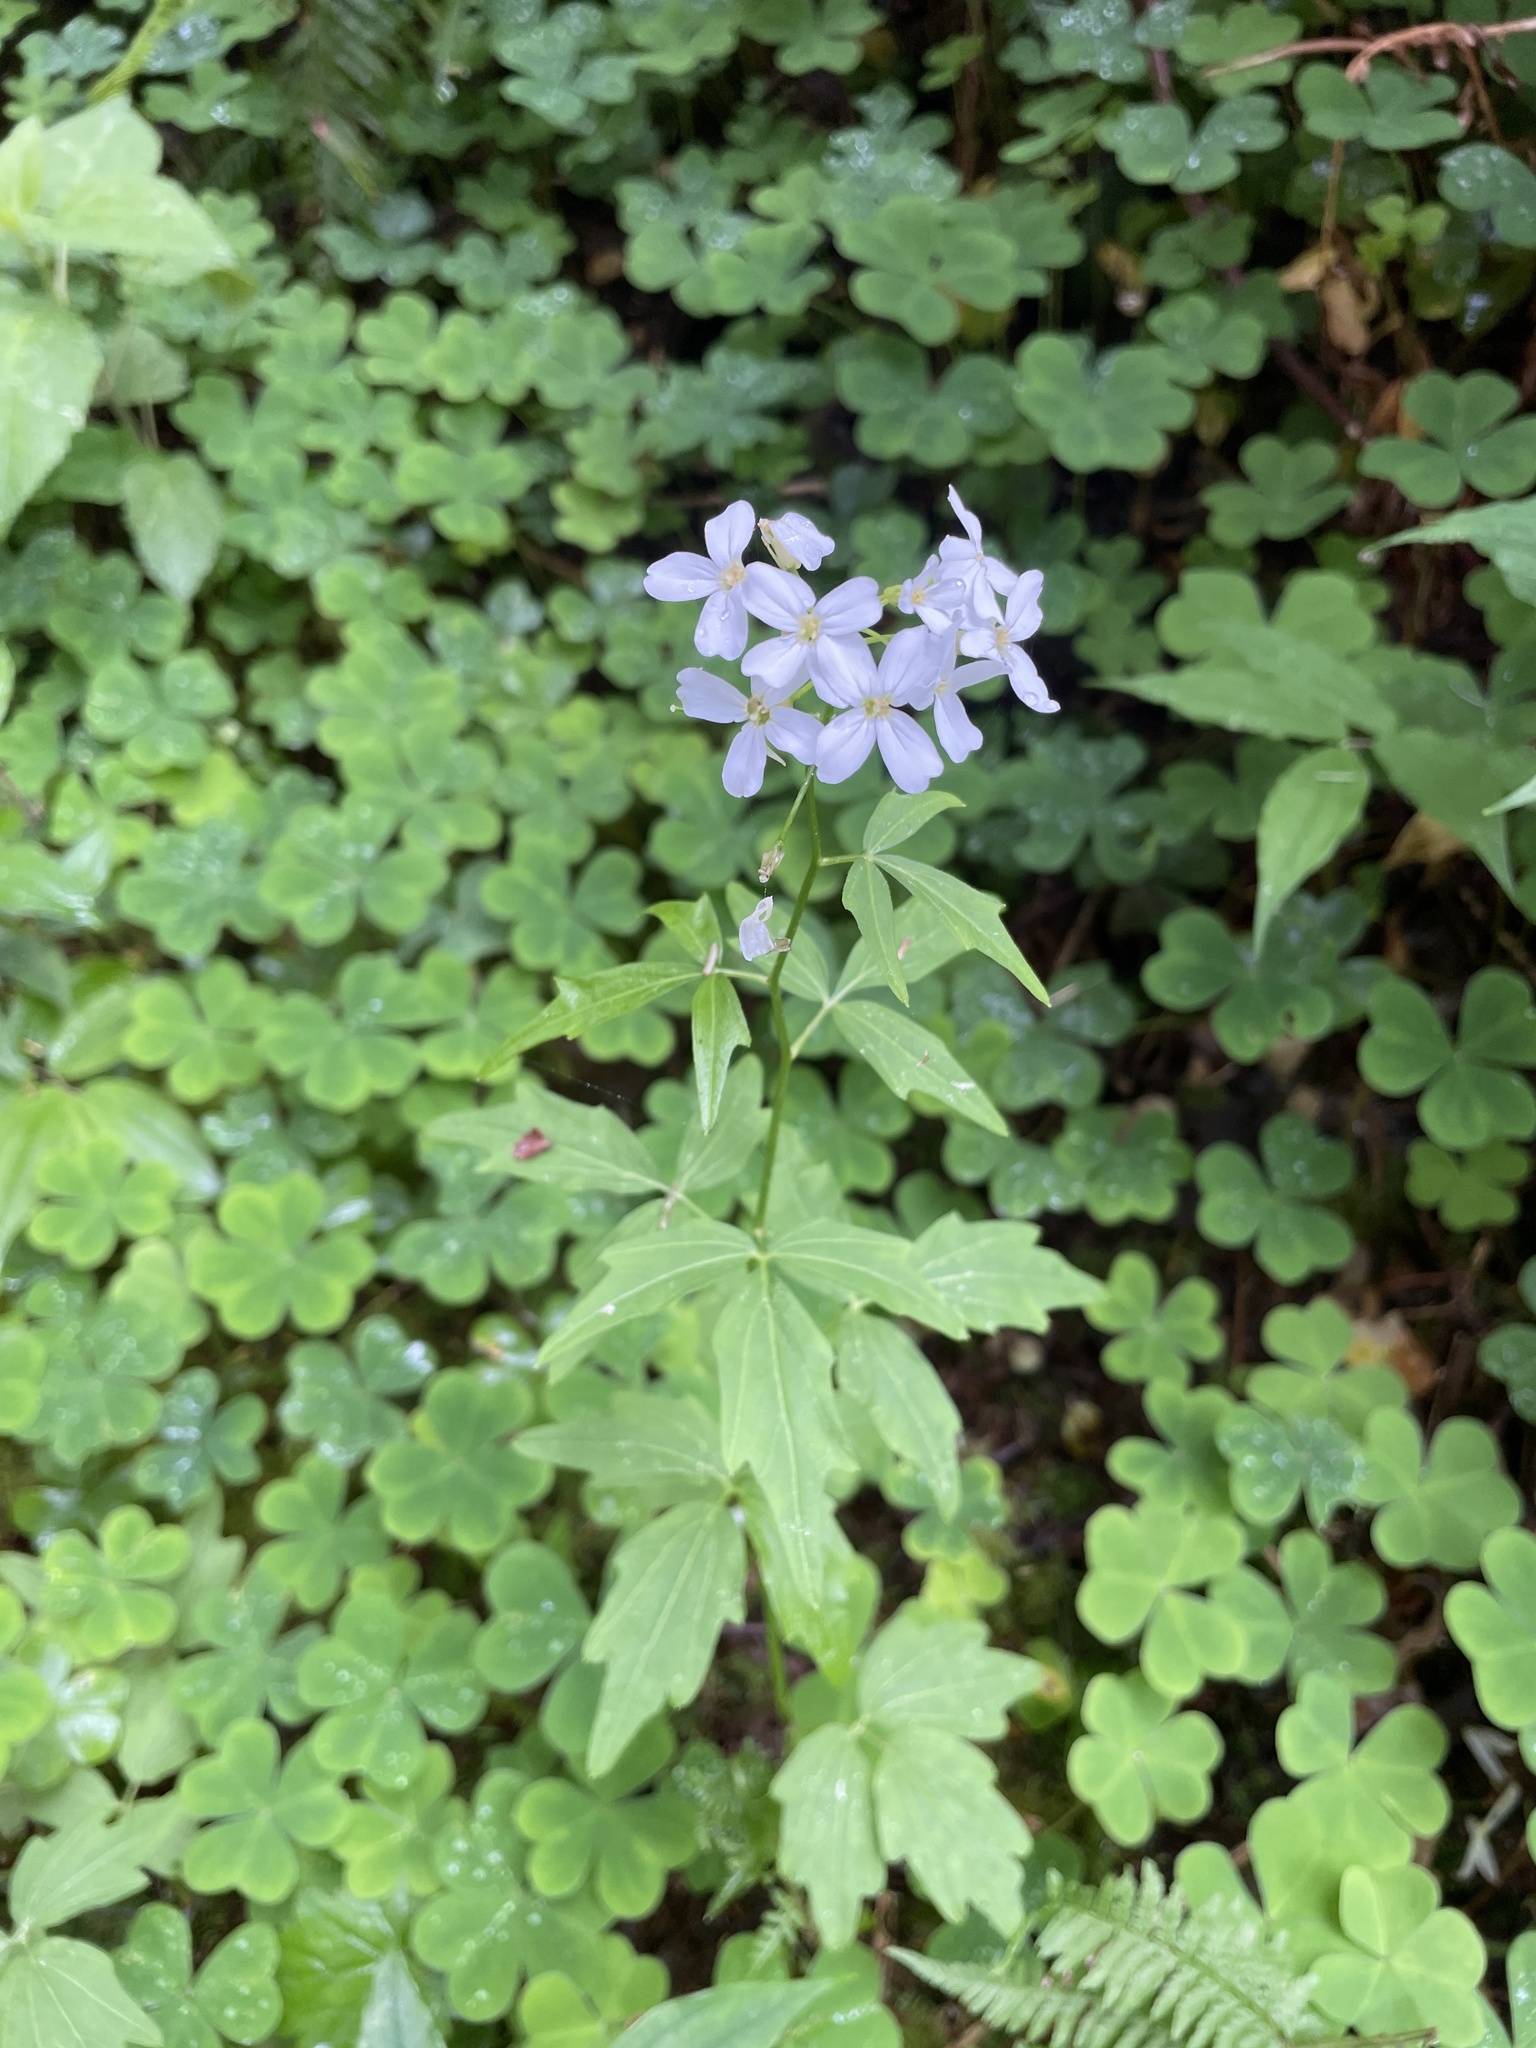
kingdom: Plantae
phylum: Tracheophyta
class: Magnoliopsida
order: Brassicales
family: Brassicaceae
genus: Cardamine
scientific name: Cardamine angulata
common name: Angled bittercress
